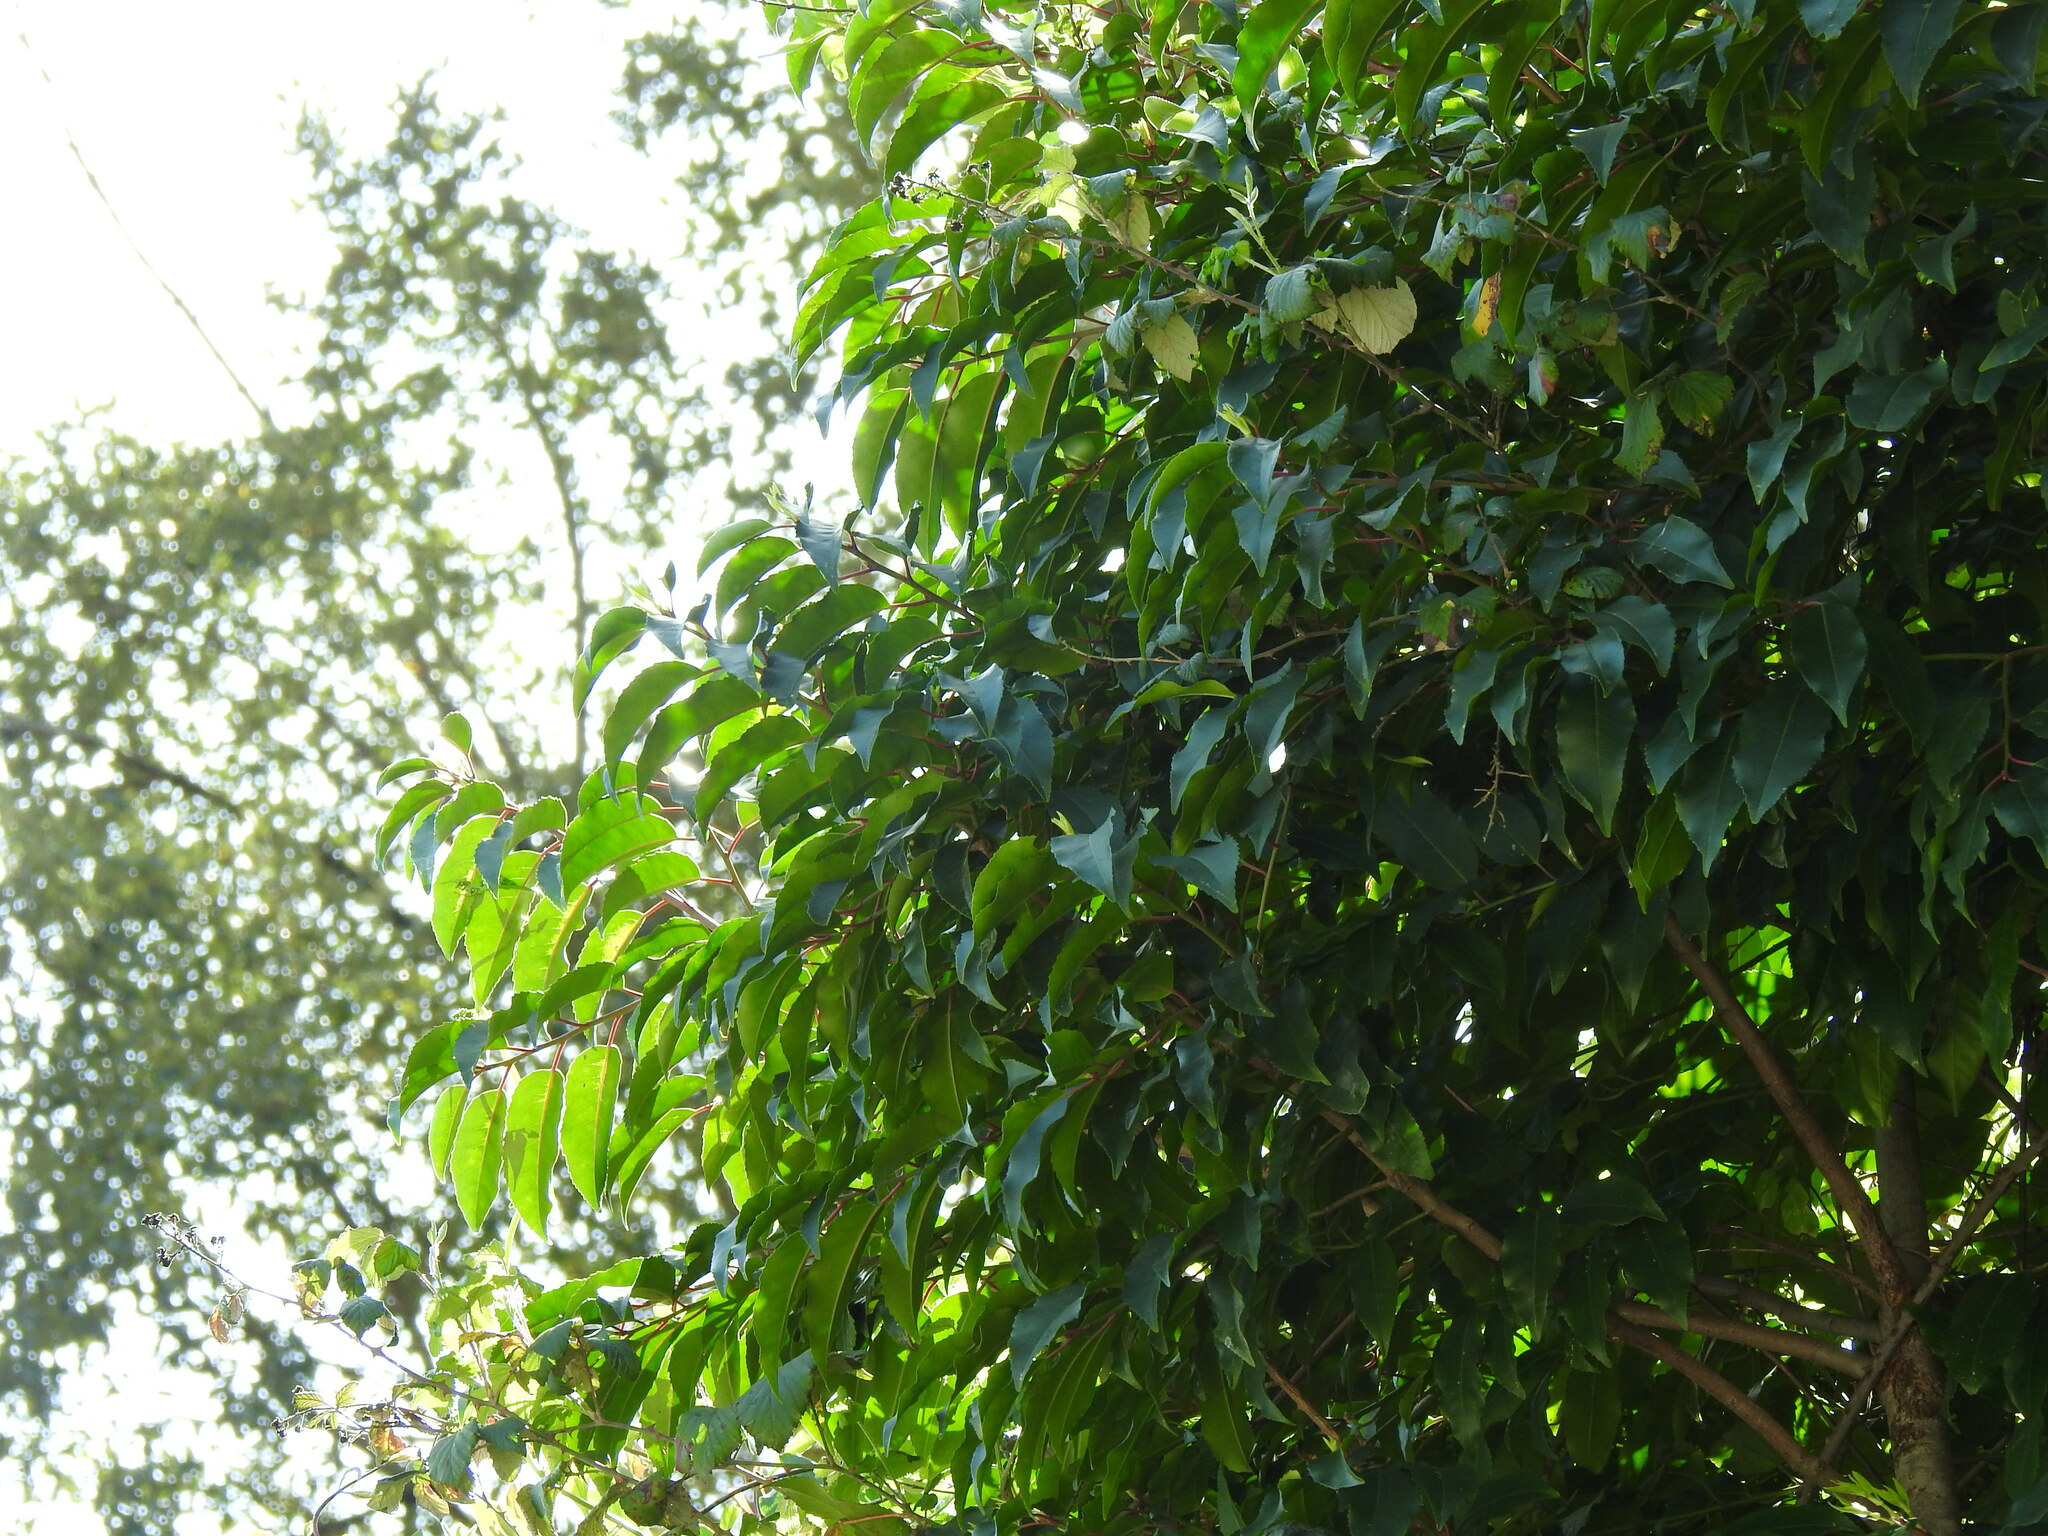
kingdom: Plantae
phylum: Tracheophyta
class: Magnoliopsida
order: Rosales
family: Rosaceae
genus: Prunus
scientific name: Prunus lusitanica
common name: Portugal laurel
